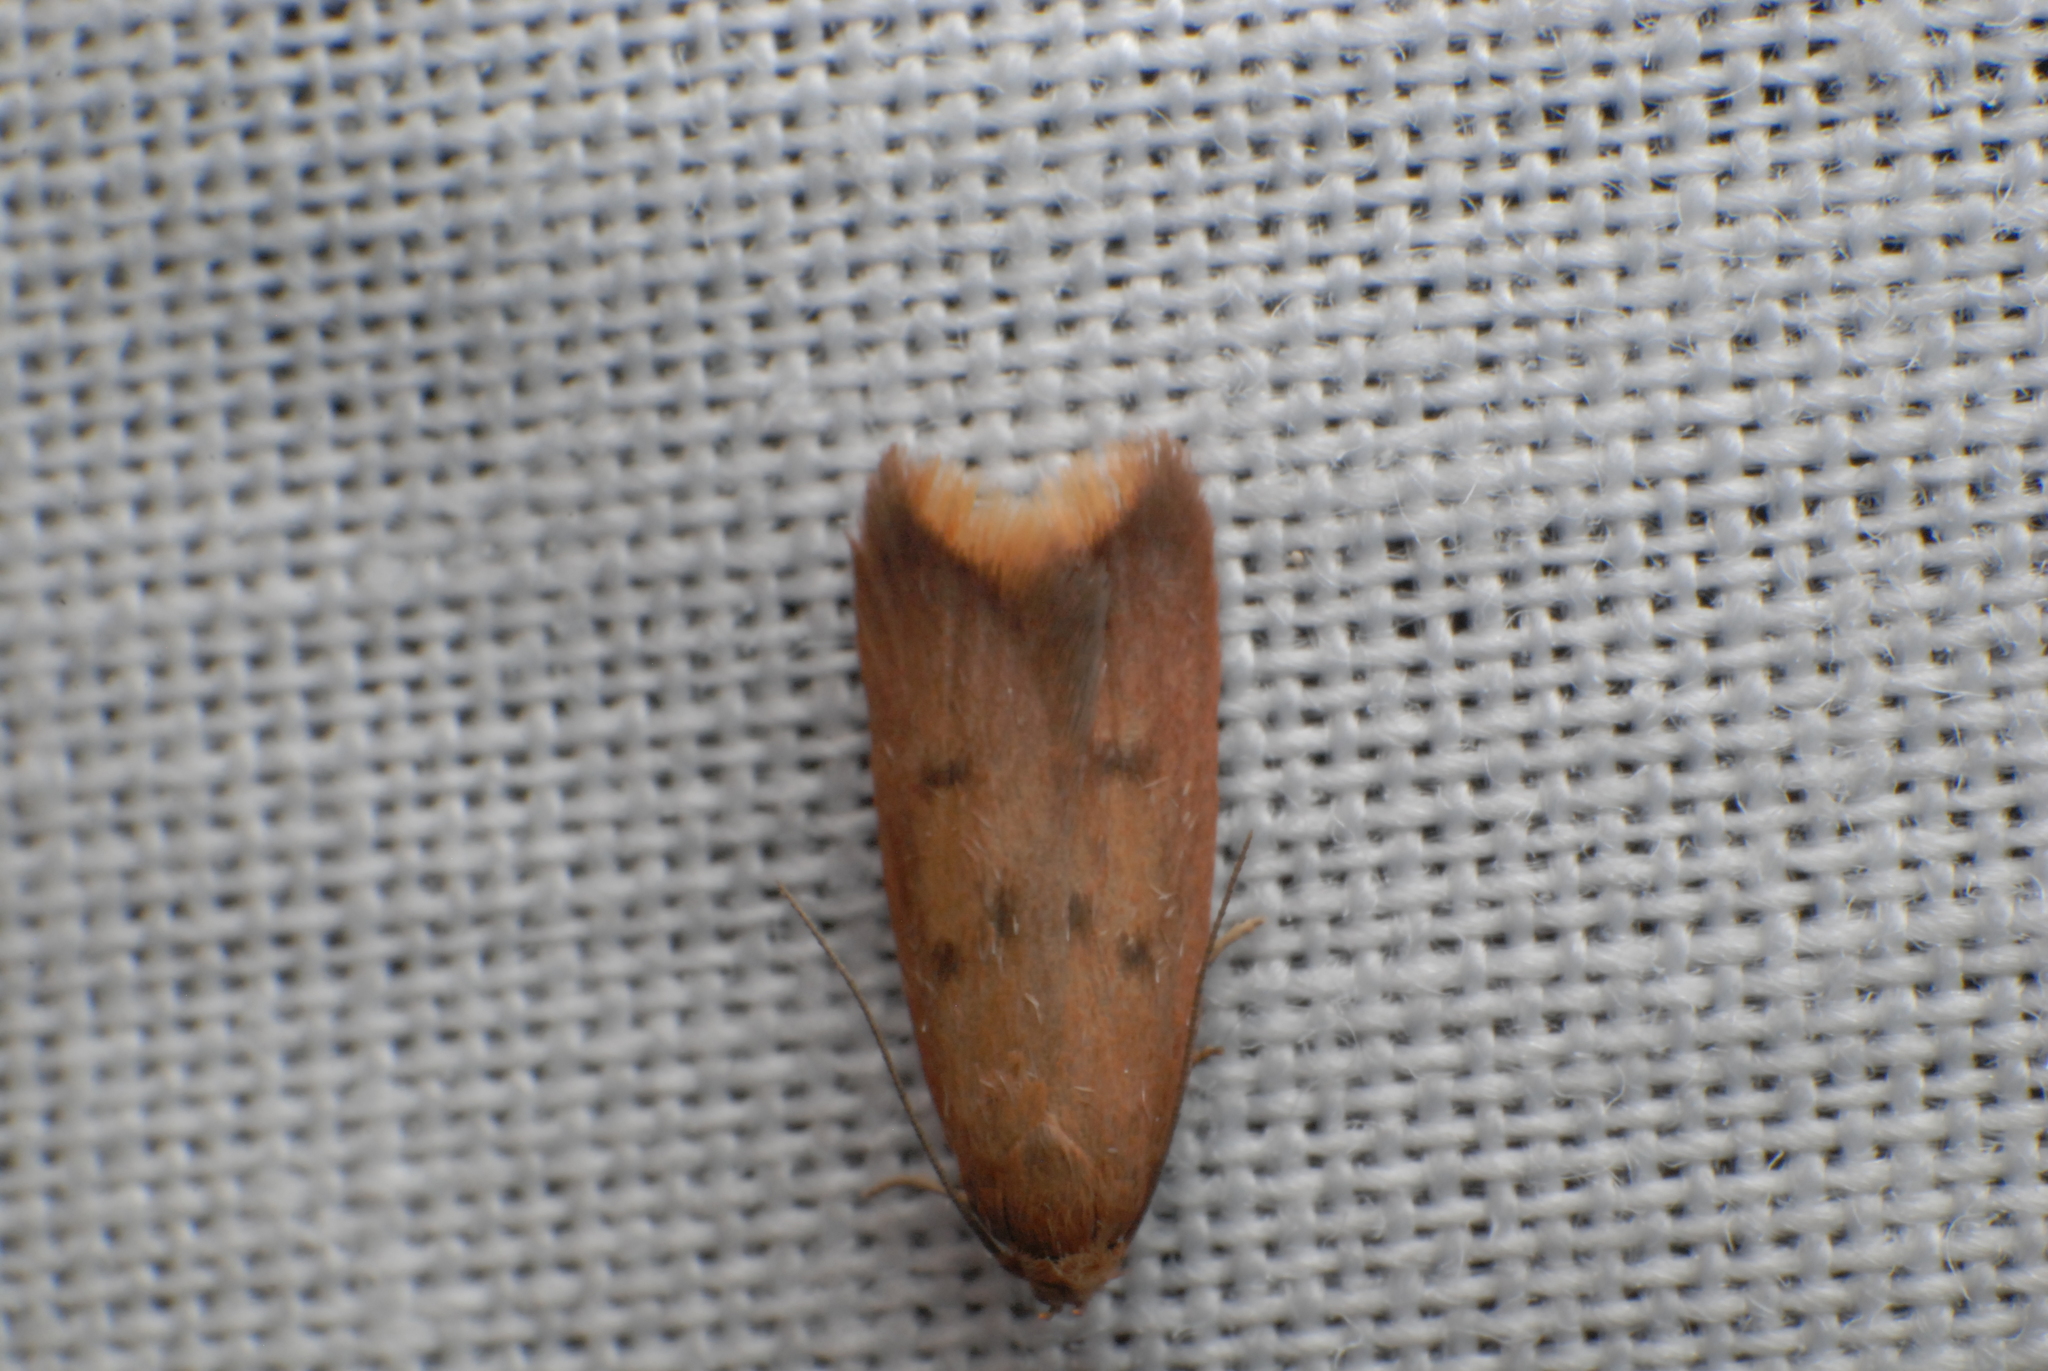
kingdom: Animalia
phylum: Arthropoda
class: Insecta
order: Lepidoptera
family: Oecophoridae
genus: Tachystola
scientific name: Tachystola acroxantha
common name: Ruddy streak
